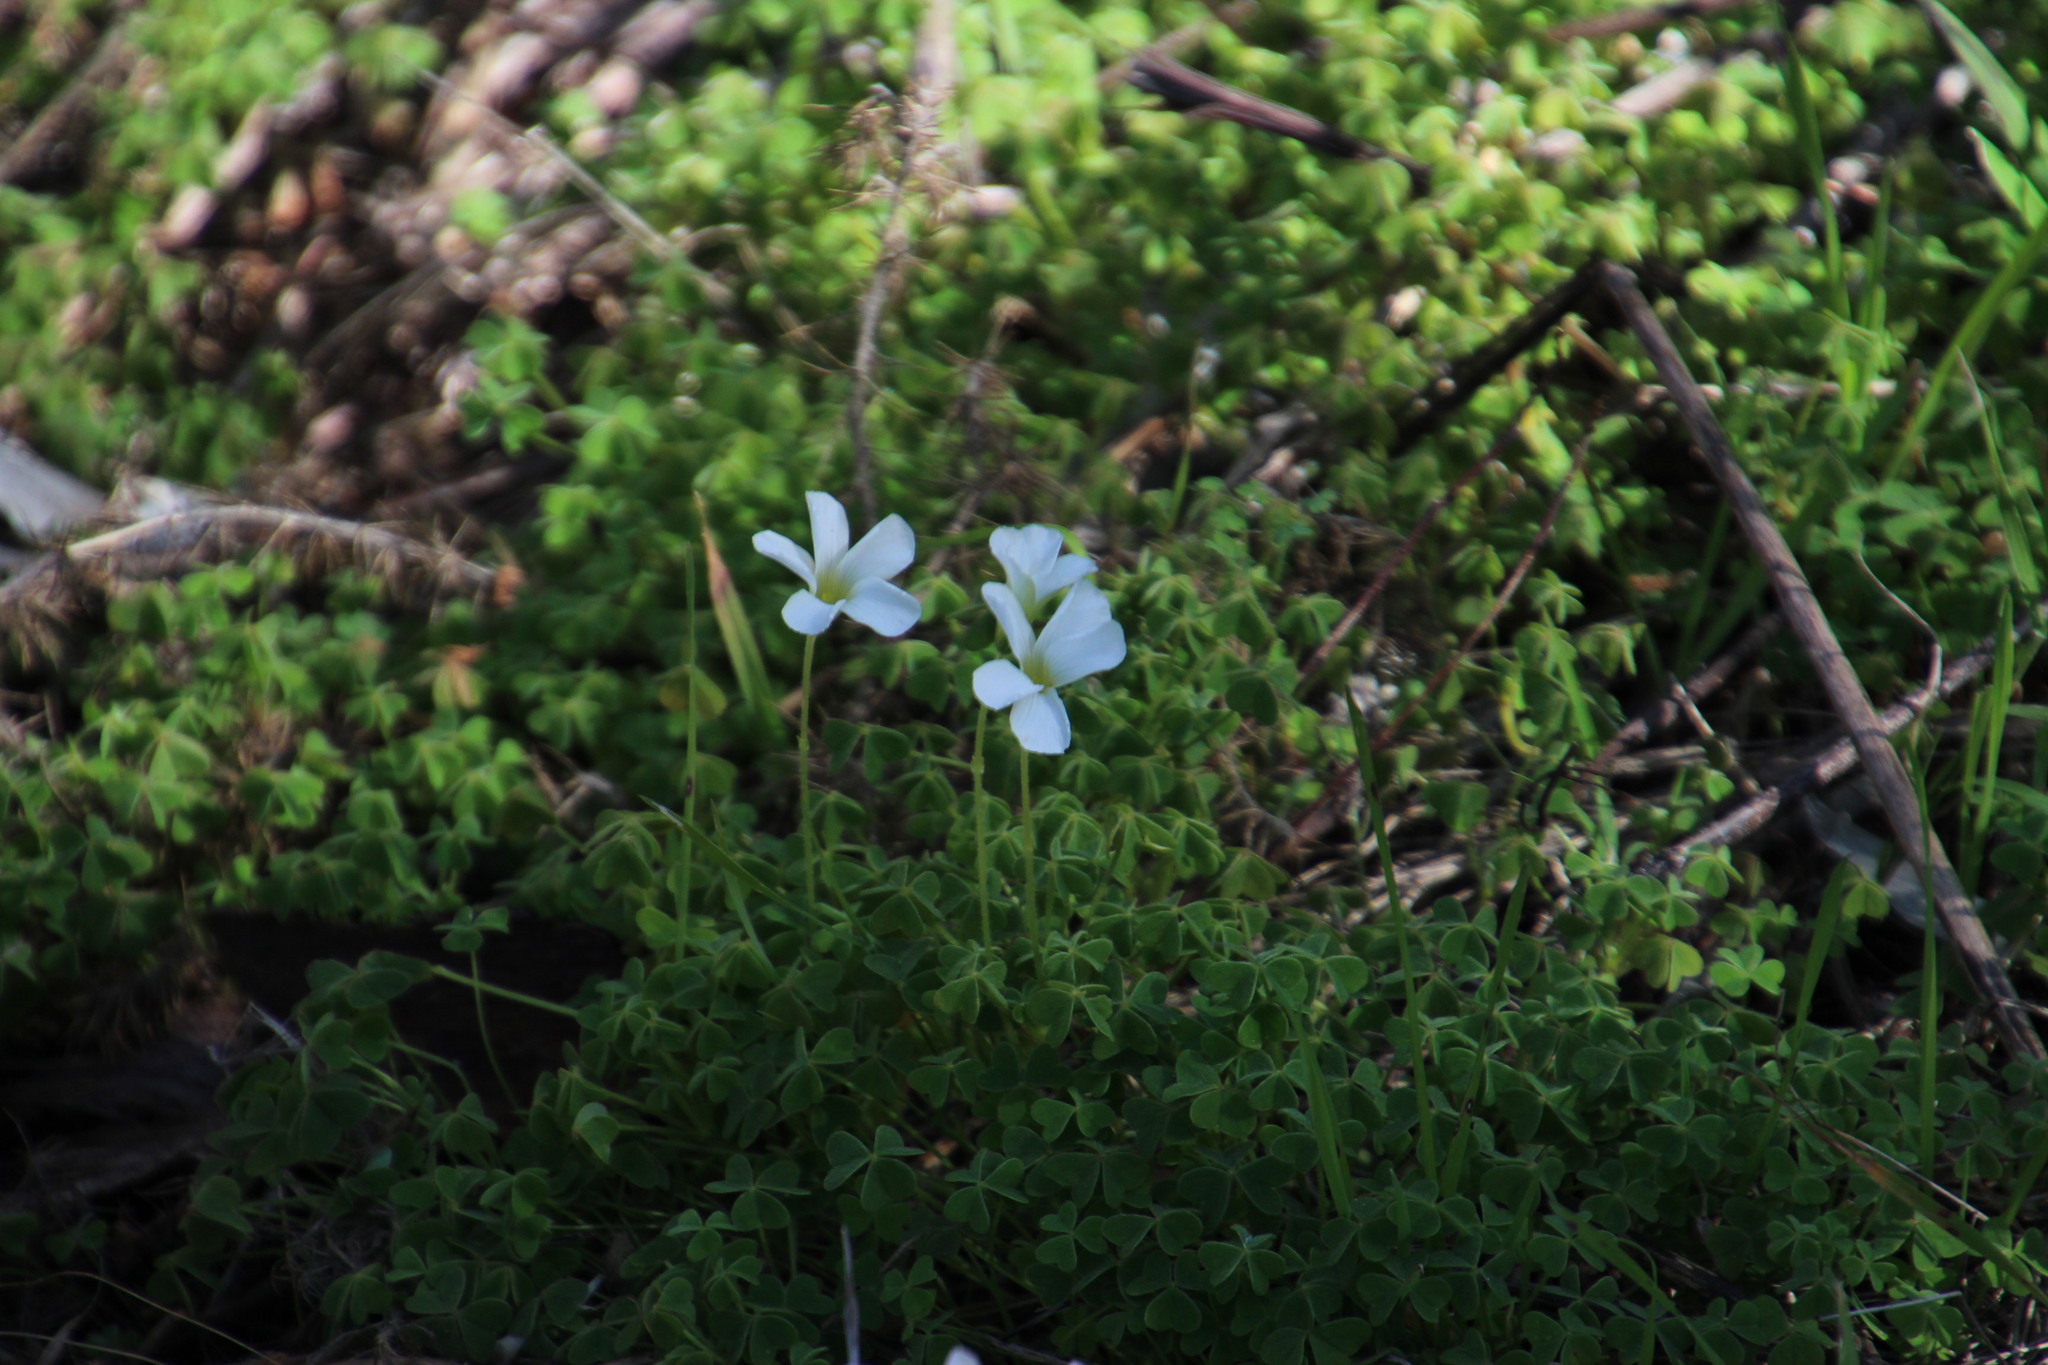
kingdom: Plantae
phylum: Tracheophyta
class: Magnoliopsida
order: Oxalidales
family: Oxalidaceae
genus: Oxalis
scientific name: Oxalis lanata
